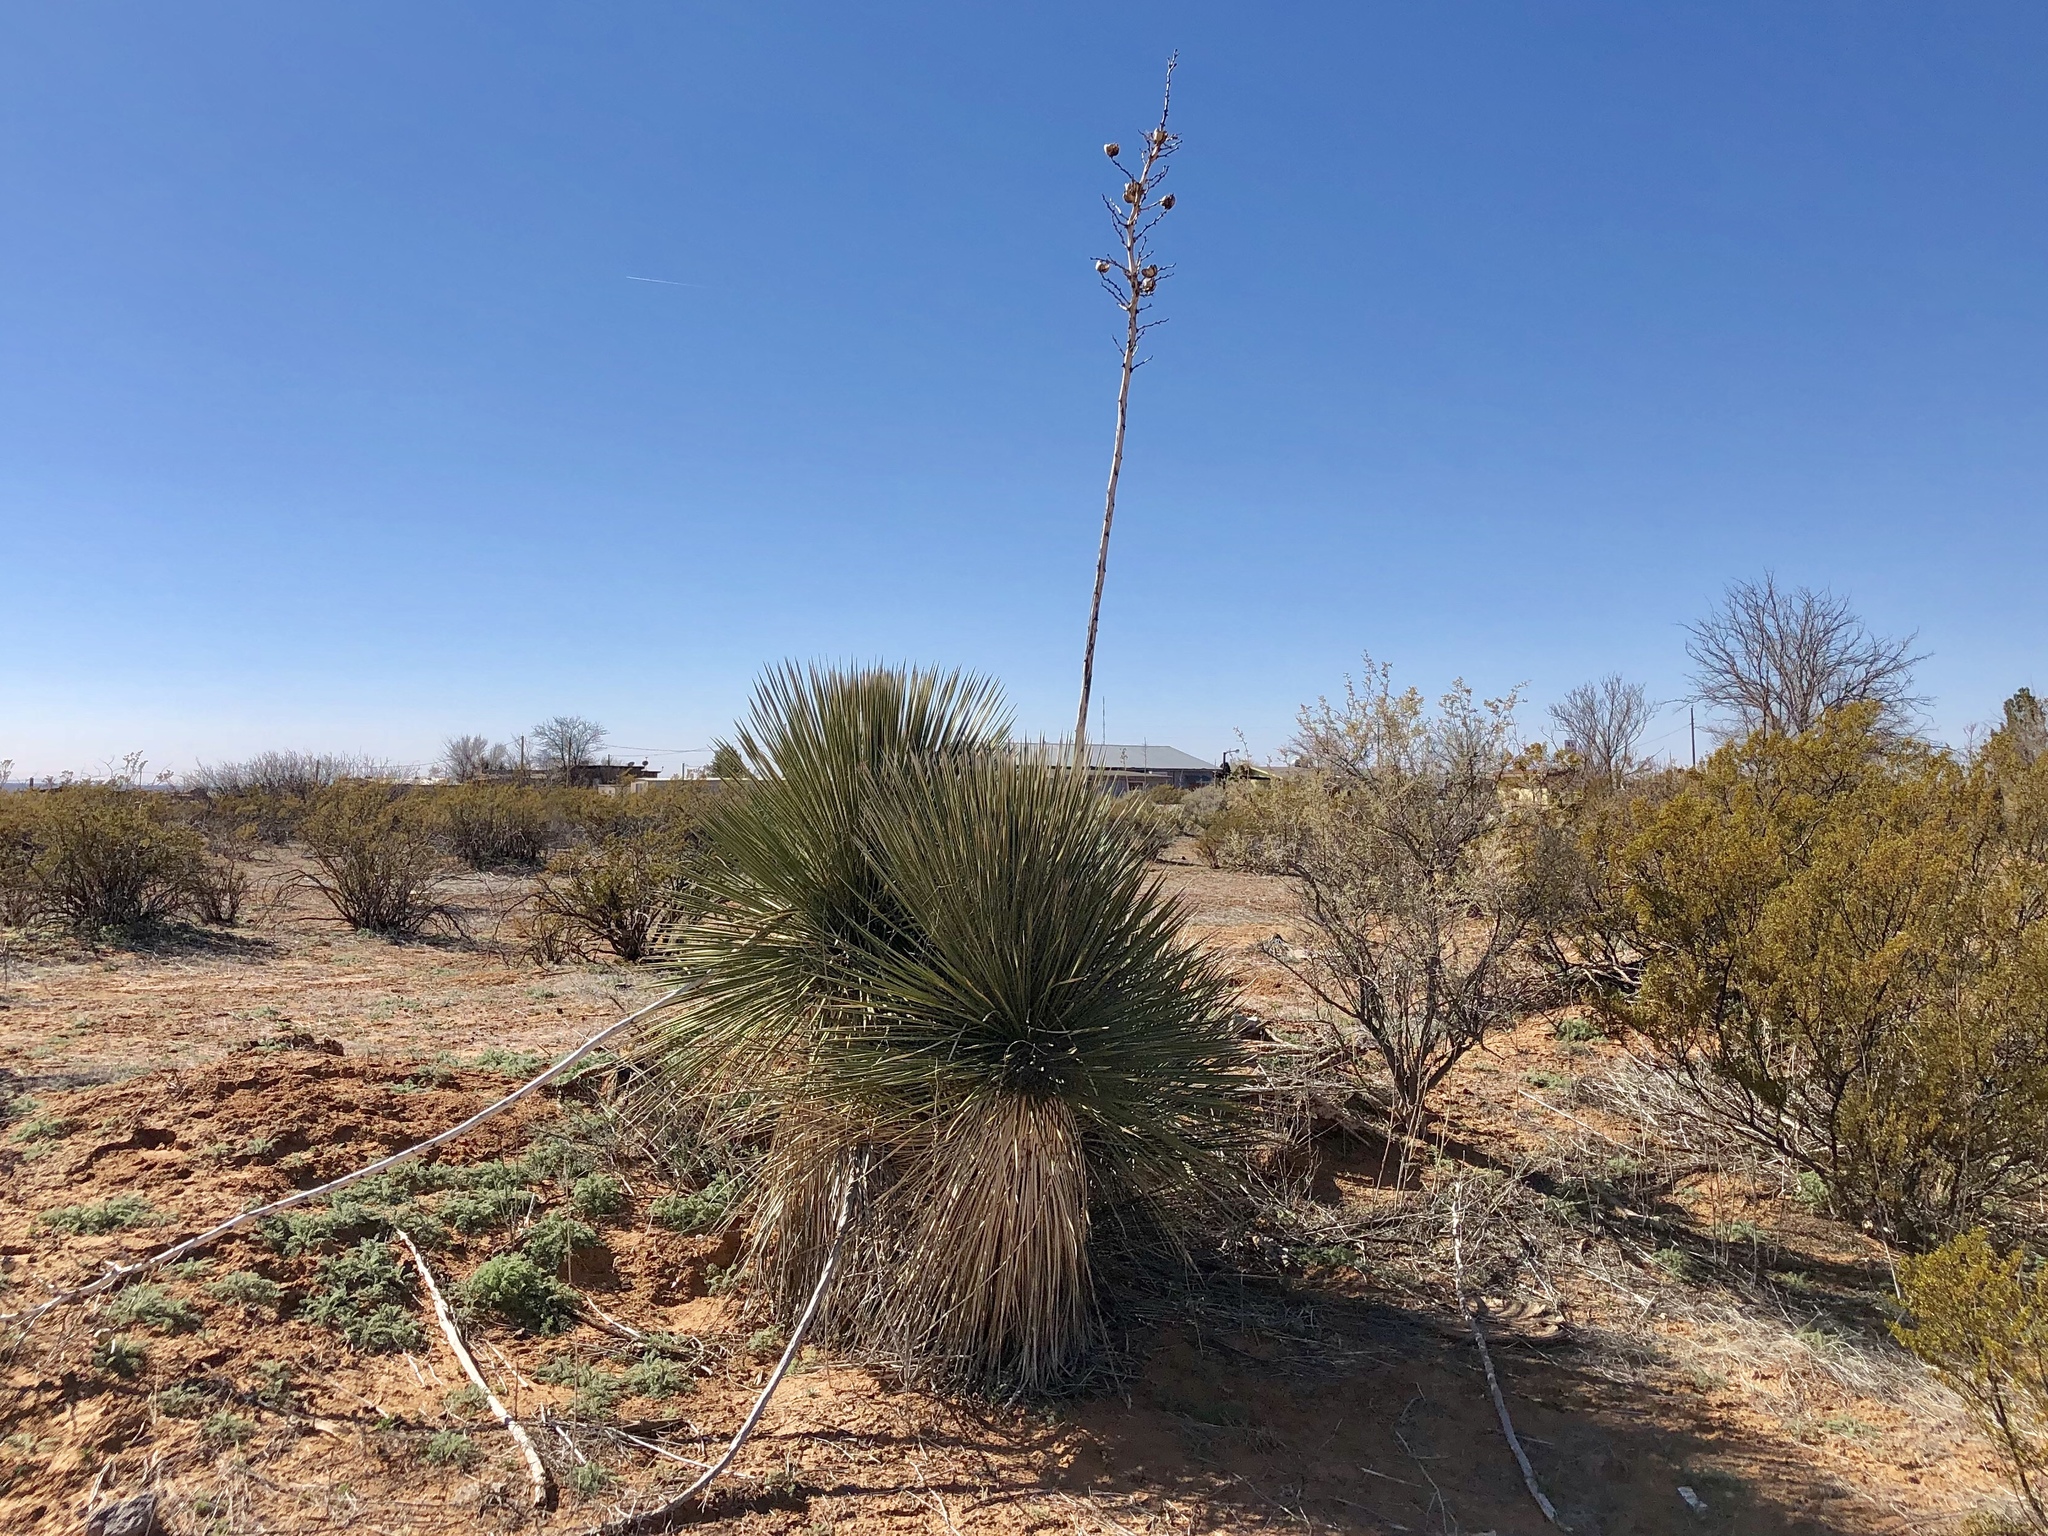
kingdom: Plantae
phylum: Tracheophyta
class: Liliopsida
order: Asparagales
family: Asparagaceae
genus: Yucca
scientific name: Yucca elata
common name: Palmella
